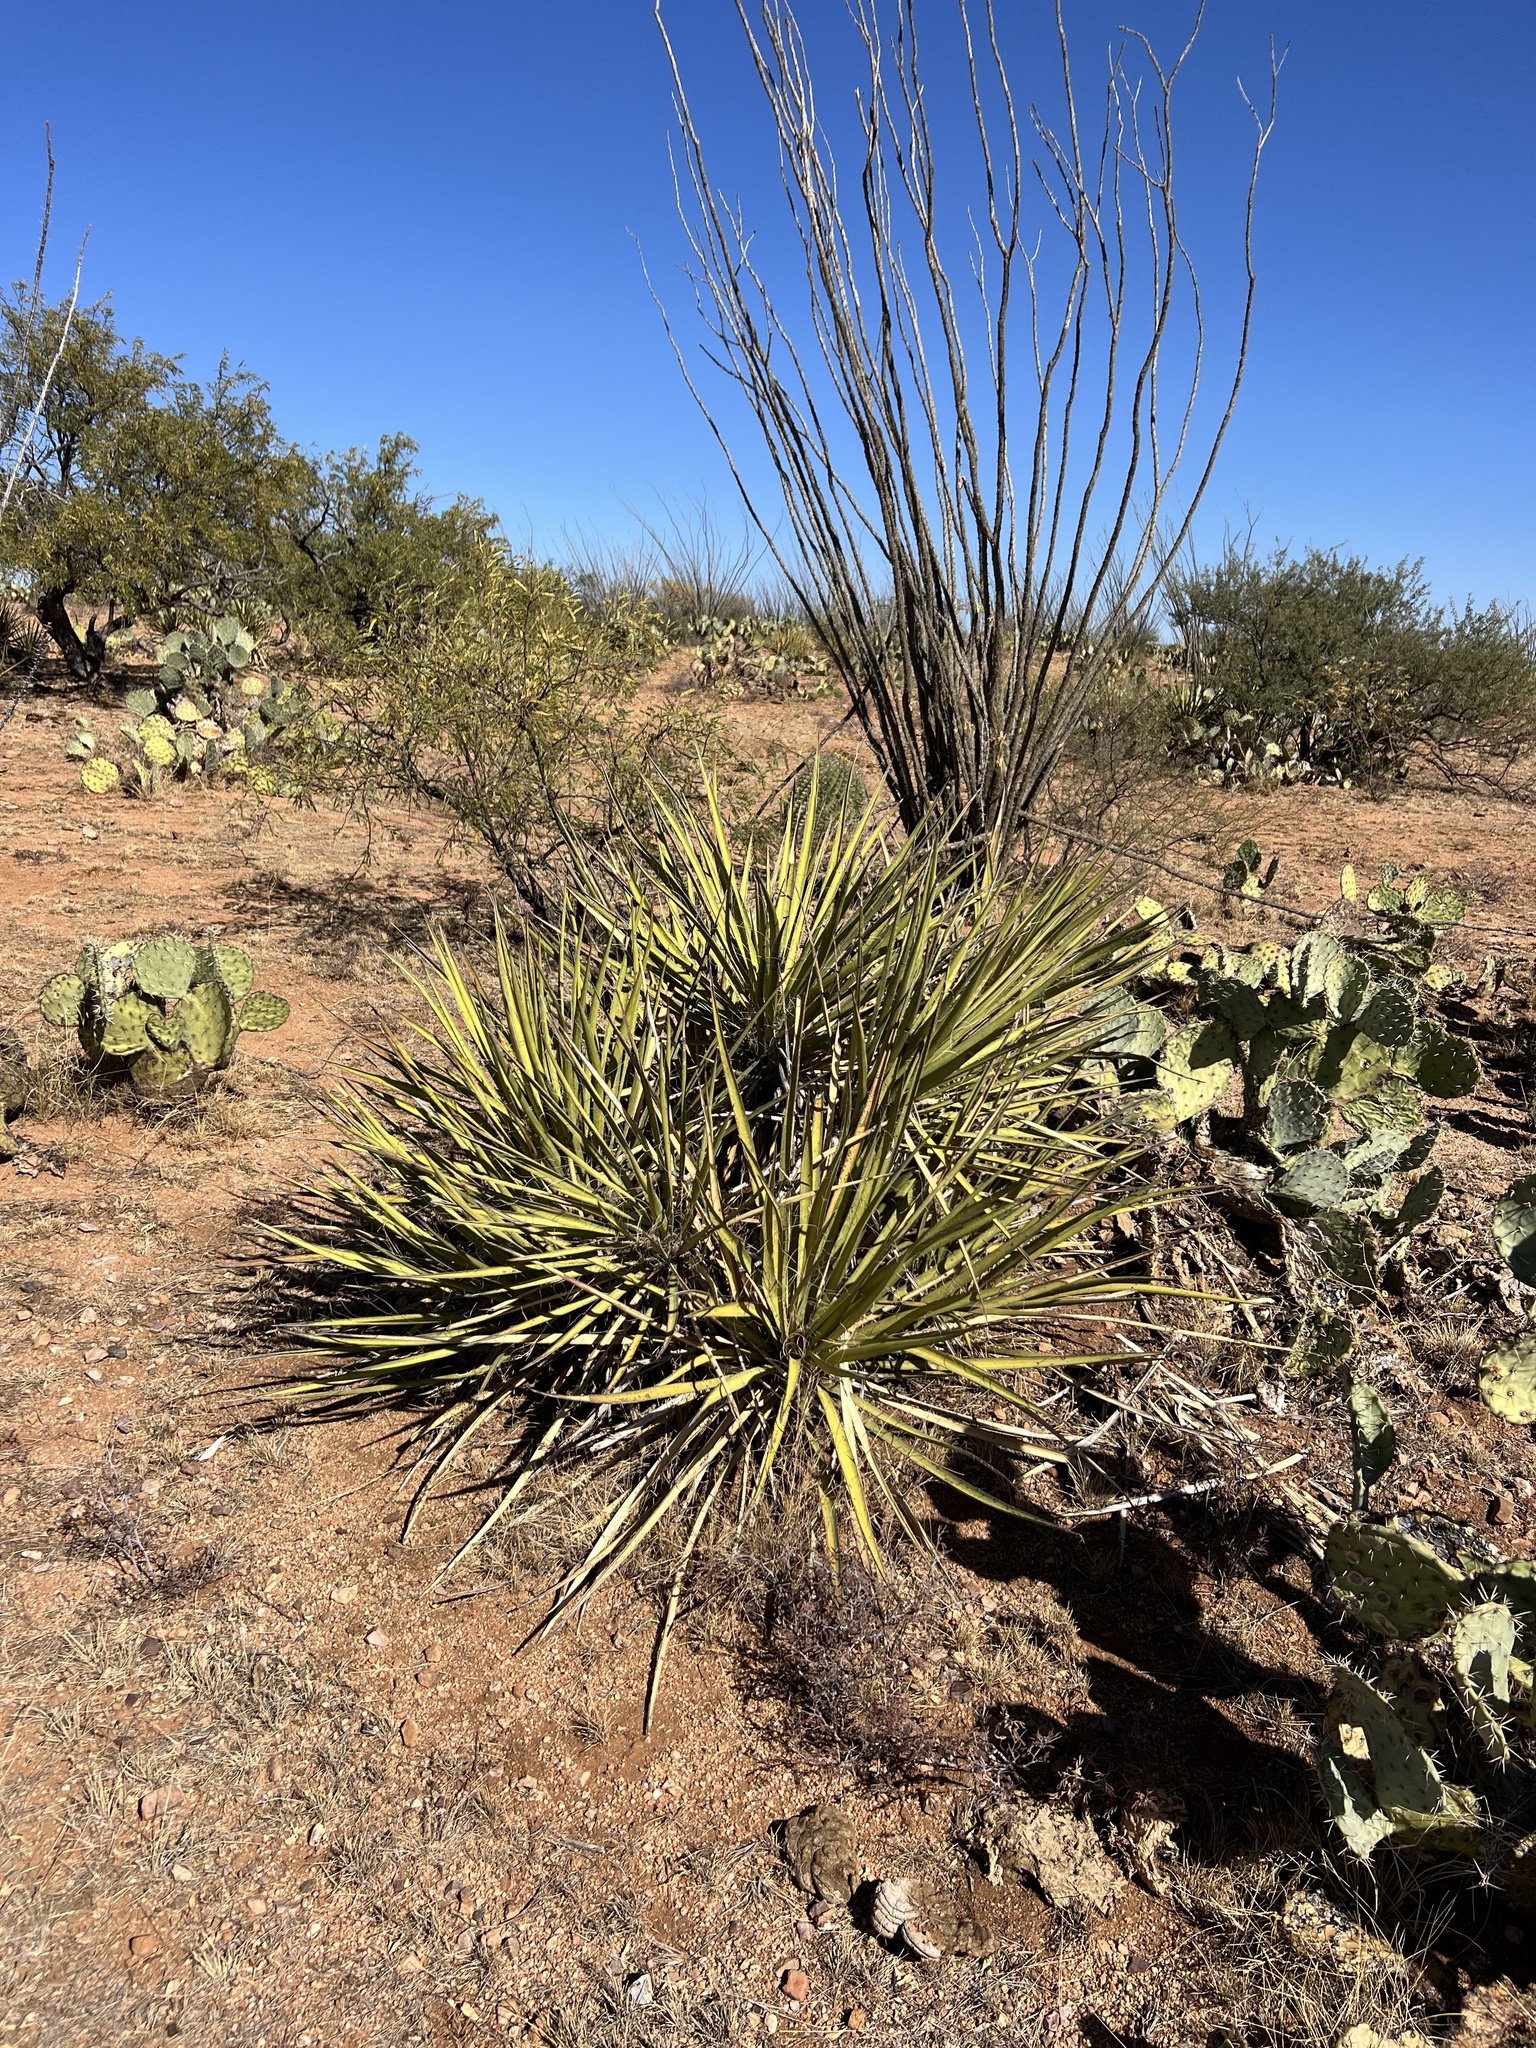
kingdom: Plantae
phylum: Tracheophyta
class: Liliopsida
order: Asparagales
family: Asparagaceae
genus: Yucca
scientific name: Yucca baccata
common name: Banana yucca
